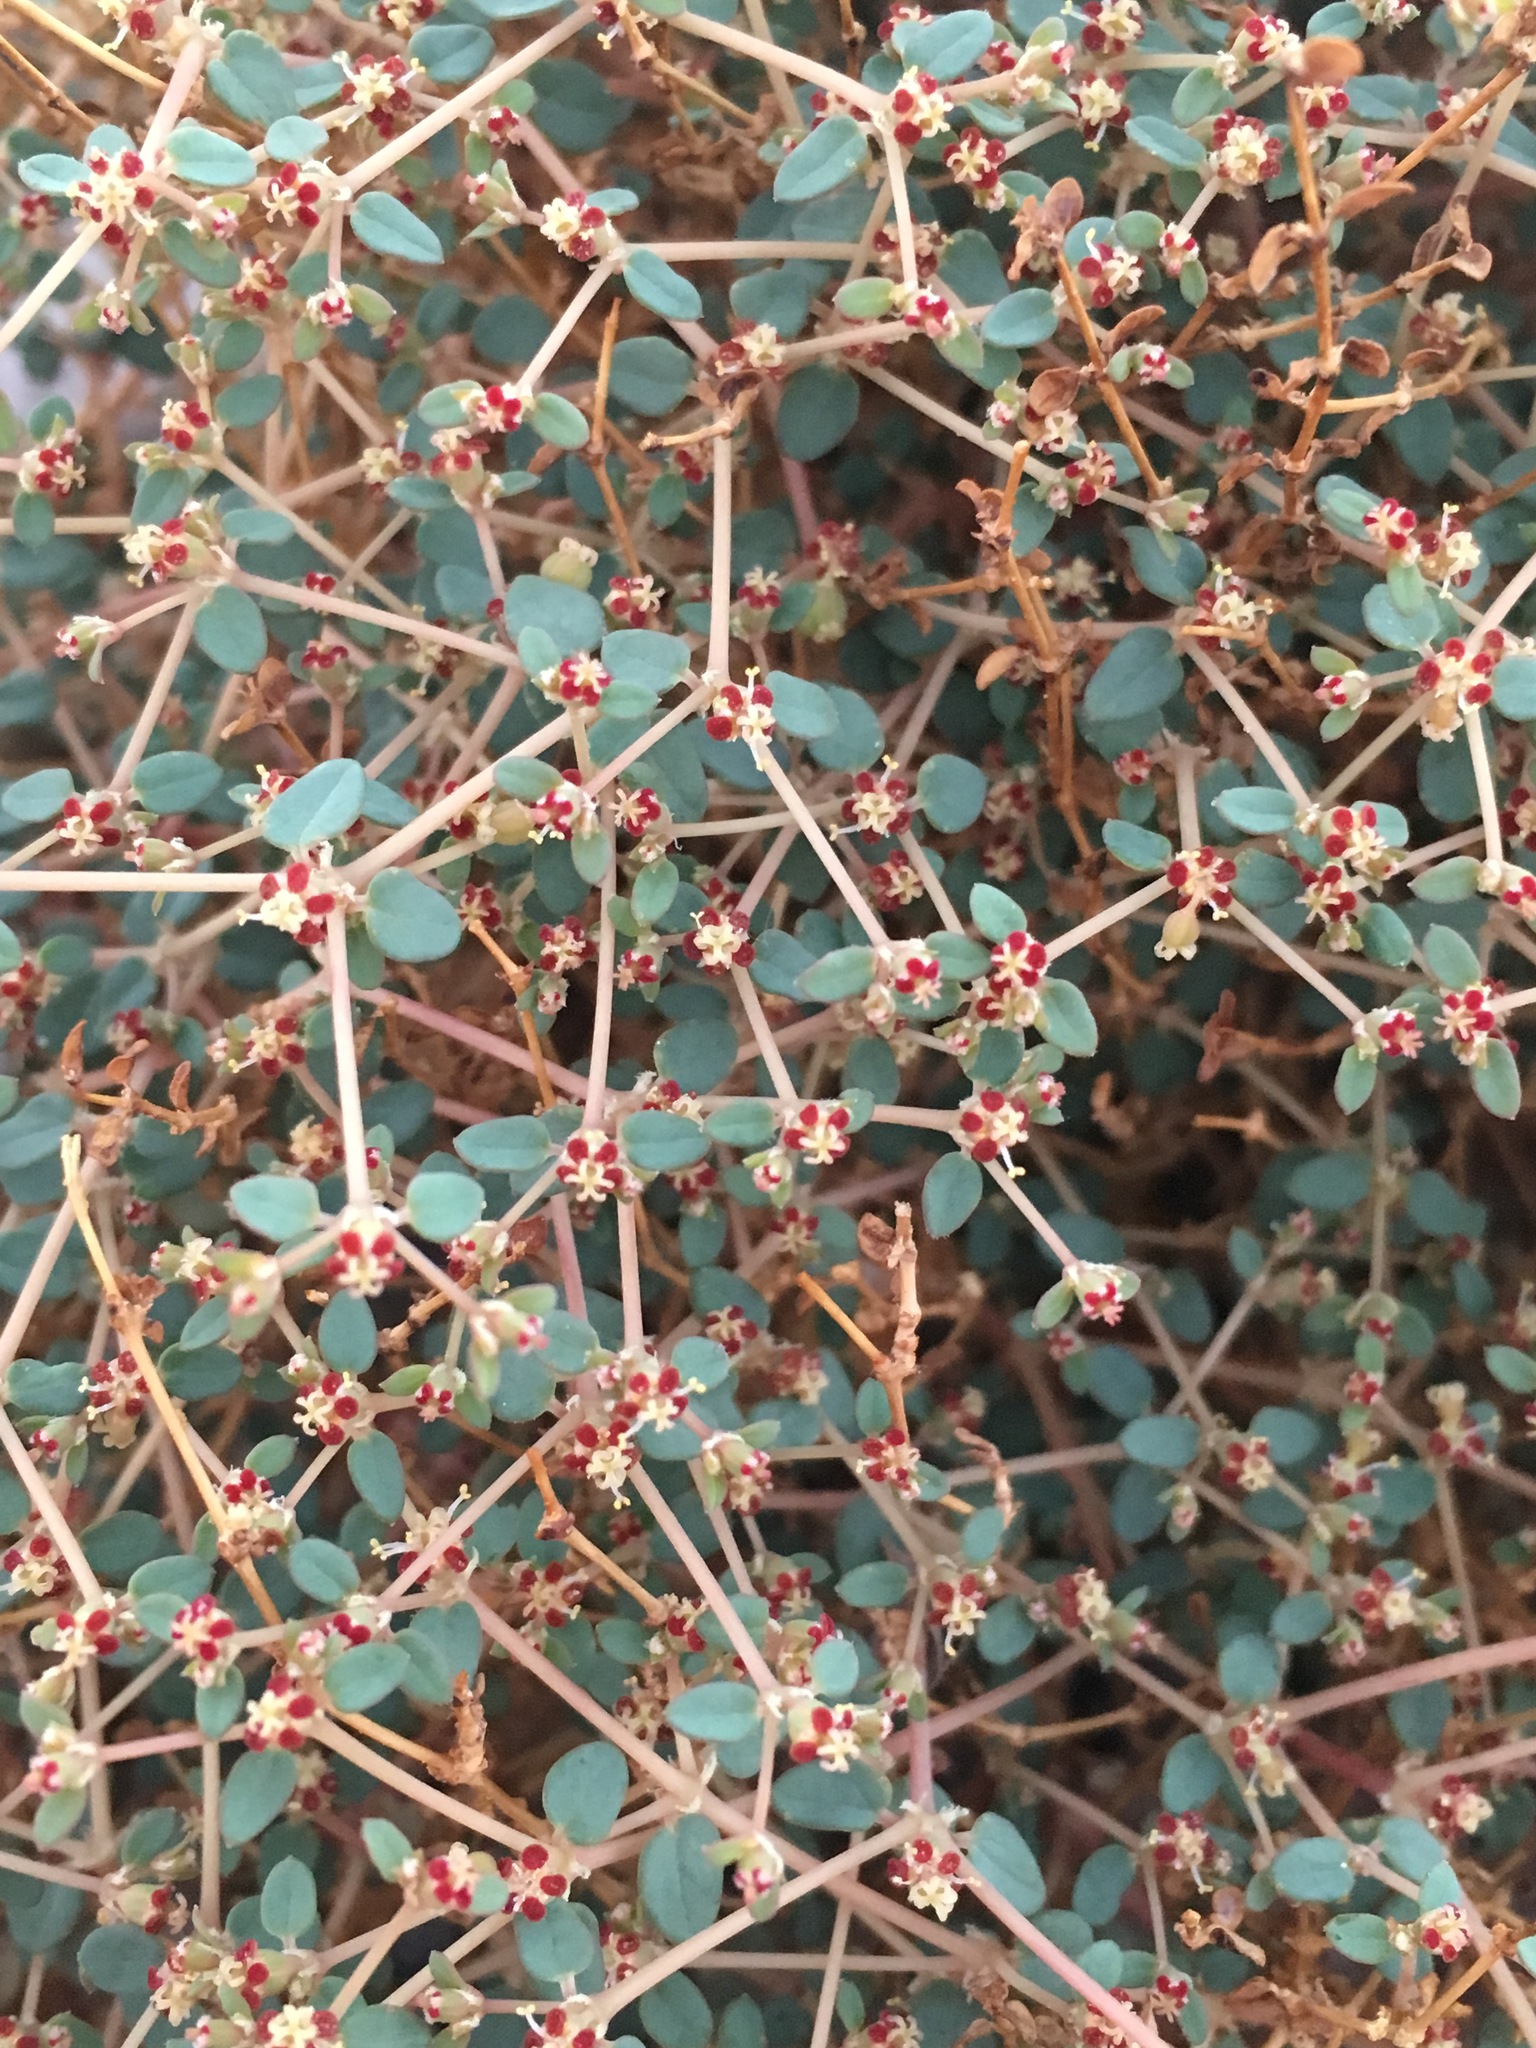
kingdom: Plantae
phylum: Tracheophyta
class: Magnoliopsida
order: Malpighiales
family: Euphorbiaceae
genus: Euphorbia
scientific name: Euphorbia parishii
